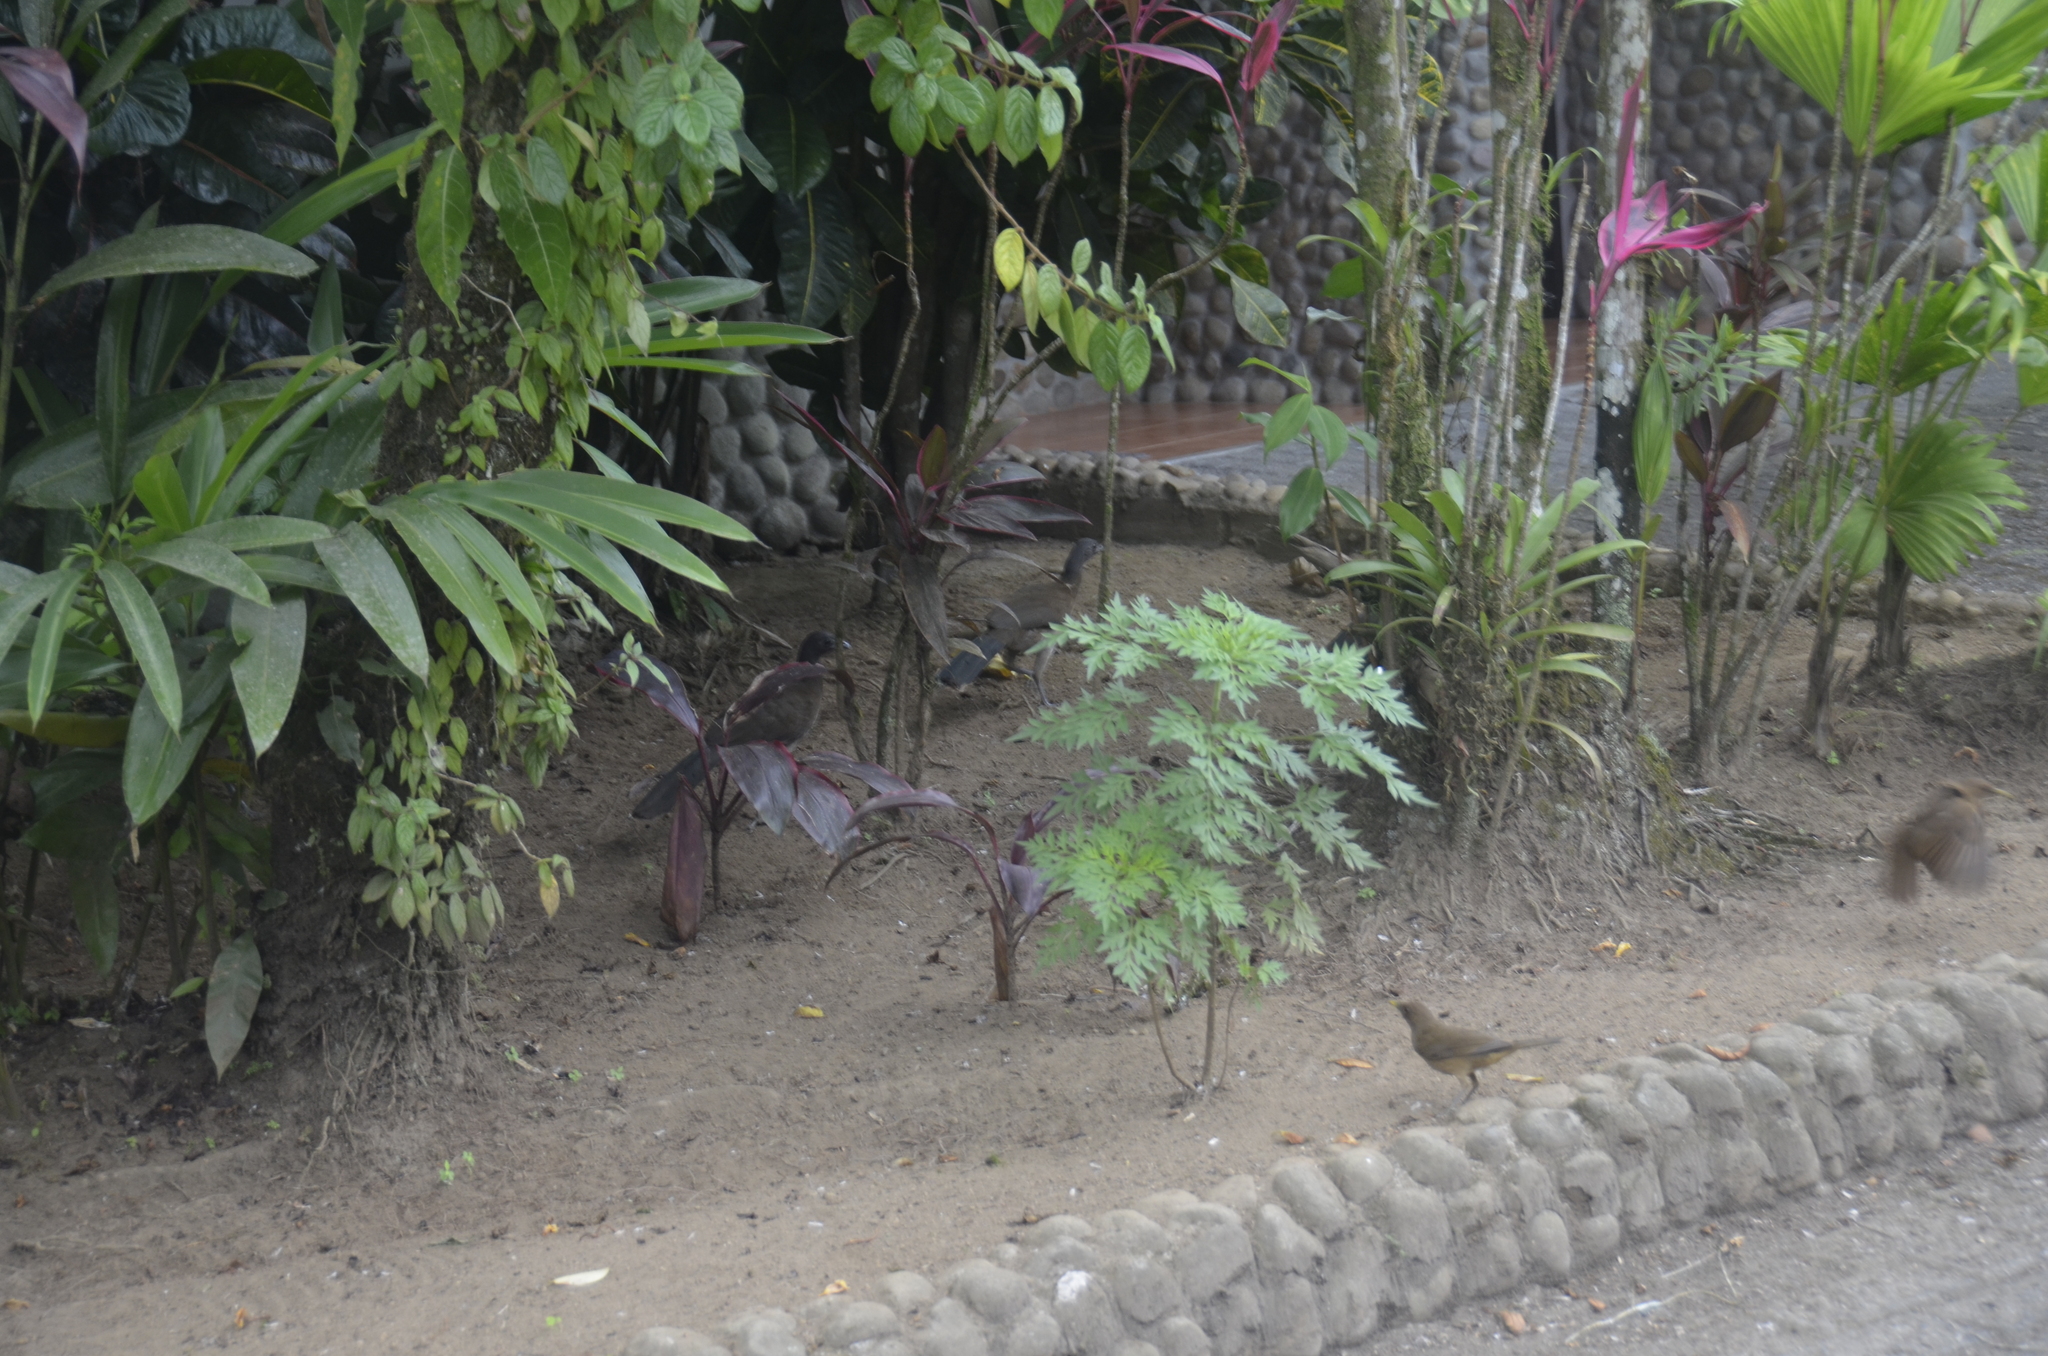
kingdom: Animalia
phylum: Chordata
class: Aves
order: Galliformes
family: Cracidae
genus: Ortalis
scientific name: Ortalis cinereiceps
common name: Grey-headed chachalaca
